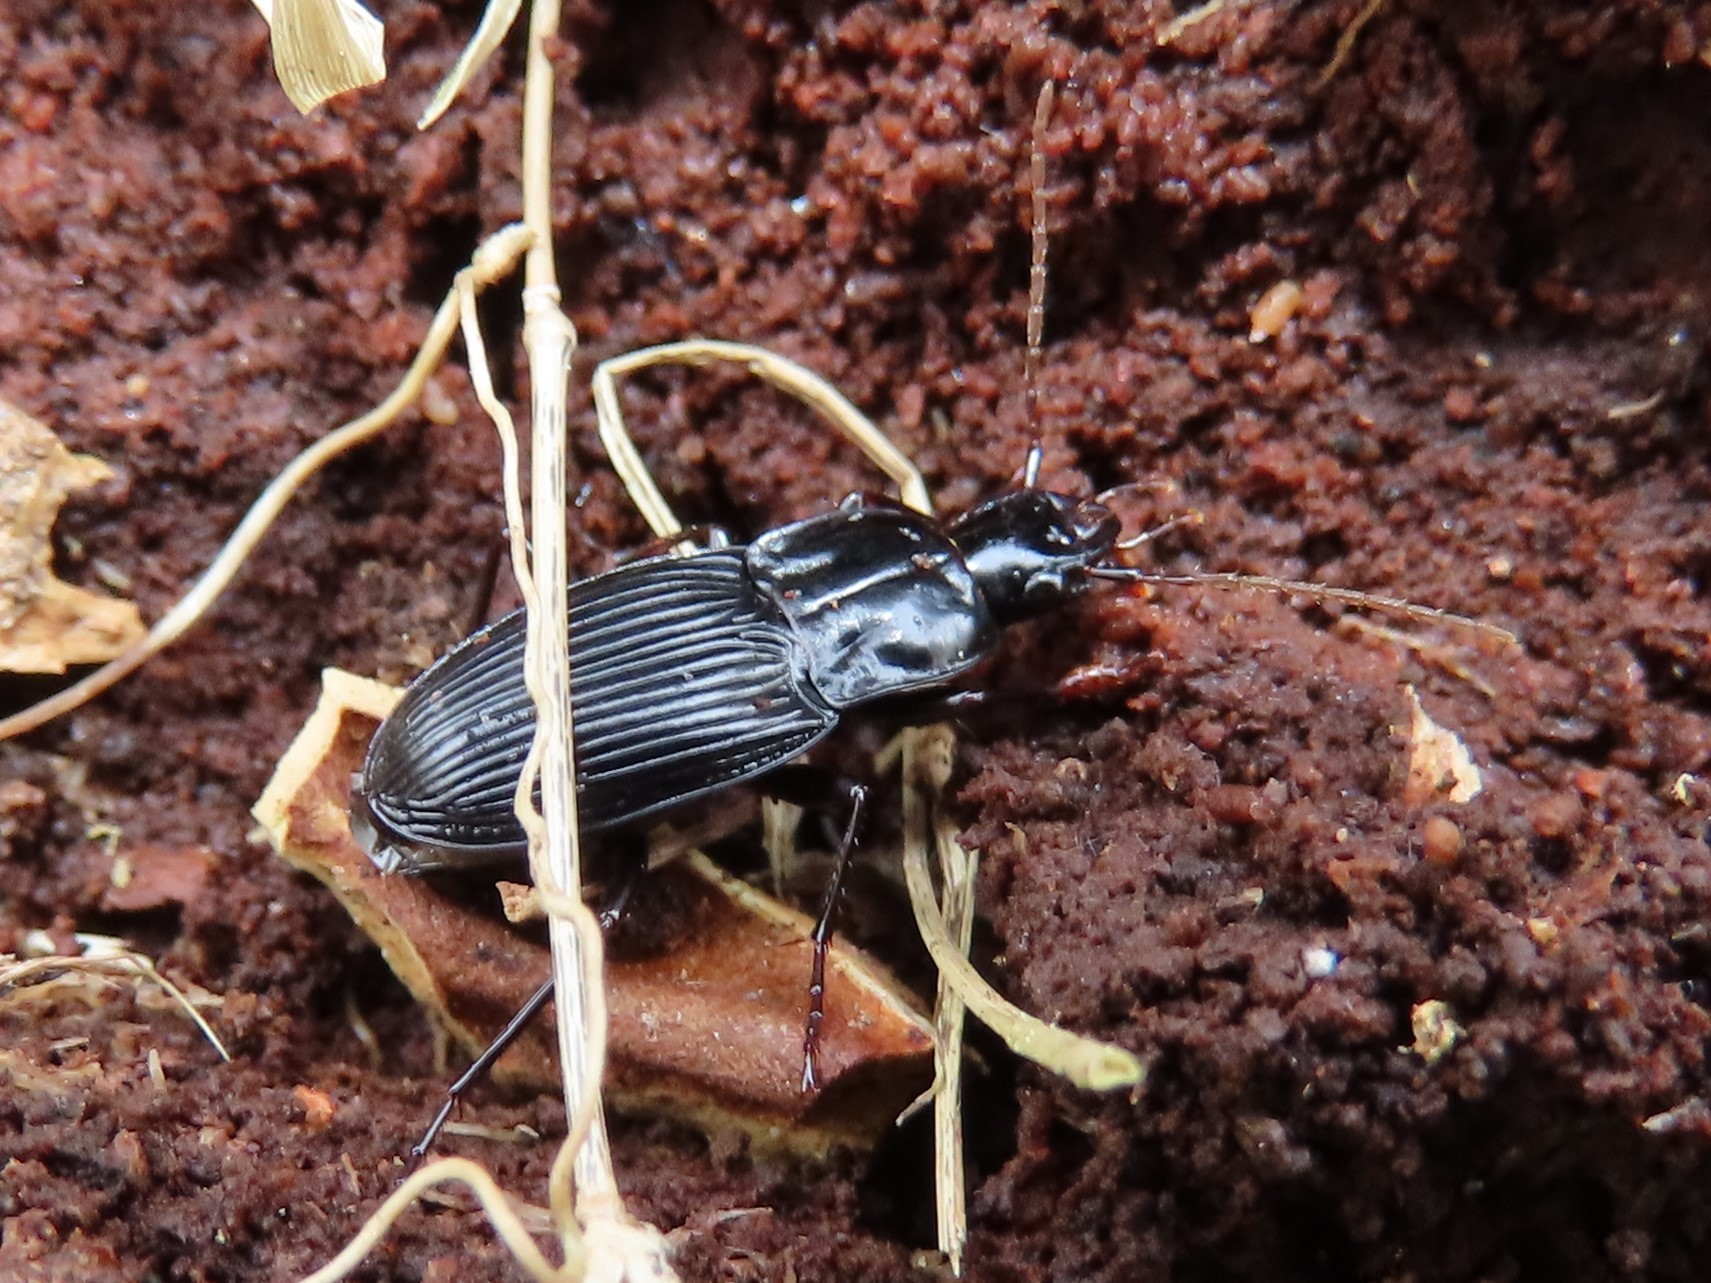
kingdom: Animalia
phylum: Arthropoda
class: Insecta
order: Coleoptera
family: Carabidae
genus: Dicaelus
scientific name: Dicaelus politus
